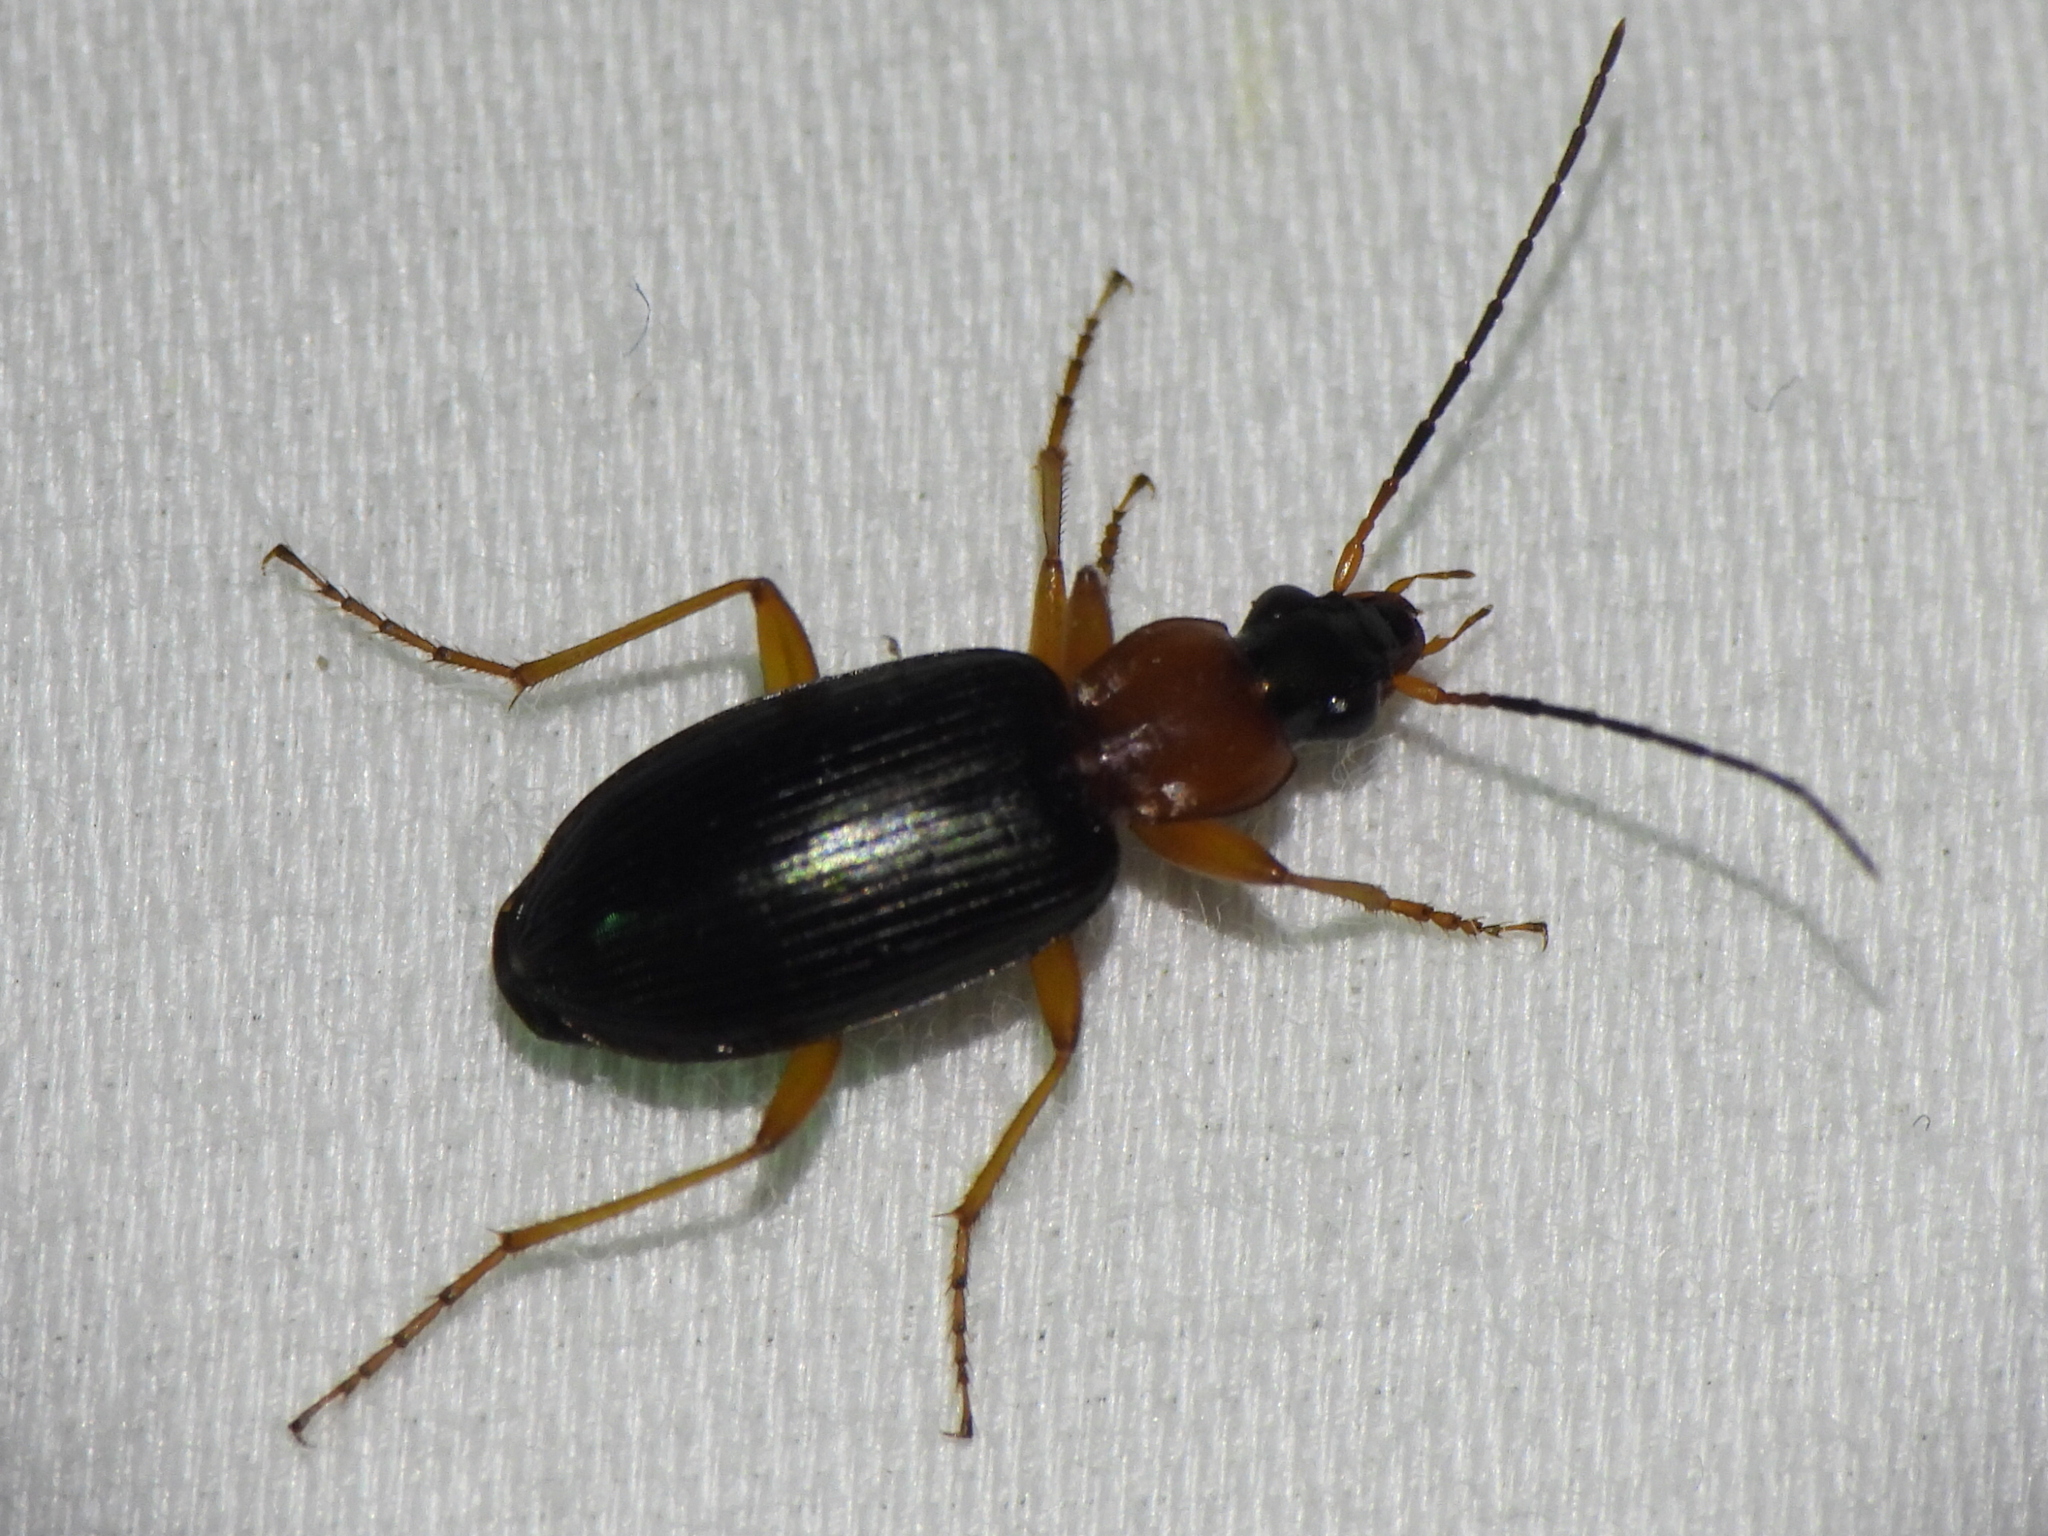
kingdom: Animalia
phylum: Arthropoda
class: Insecta
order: Coleoptera
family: Carabidae
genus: Agonum
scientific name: Agonum decorum
